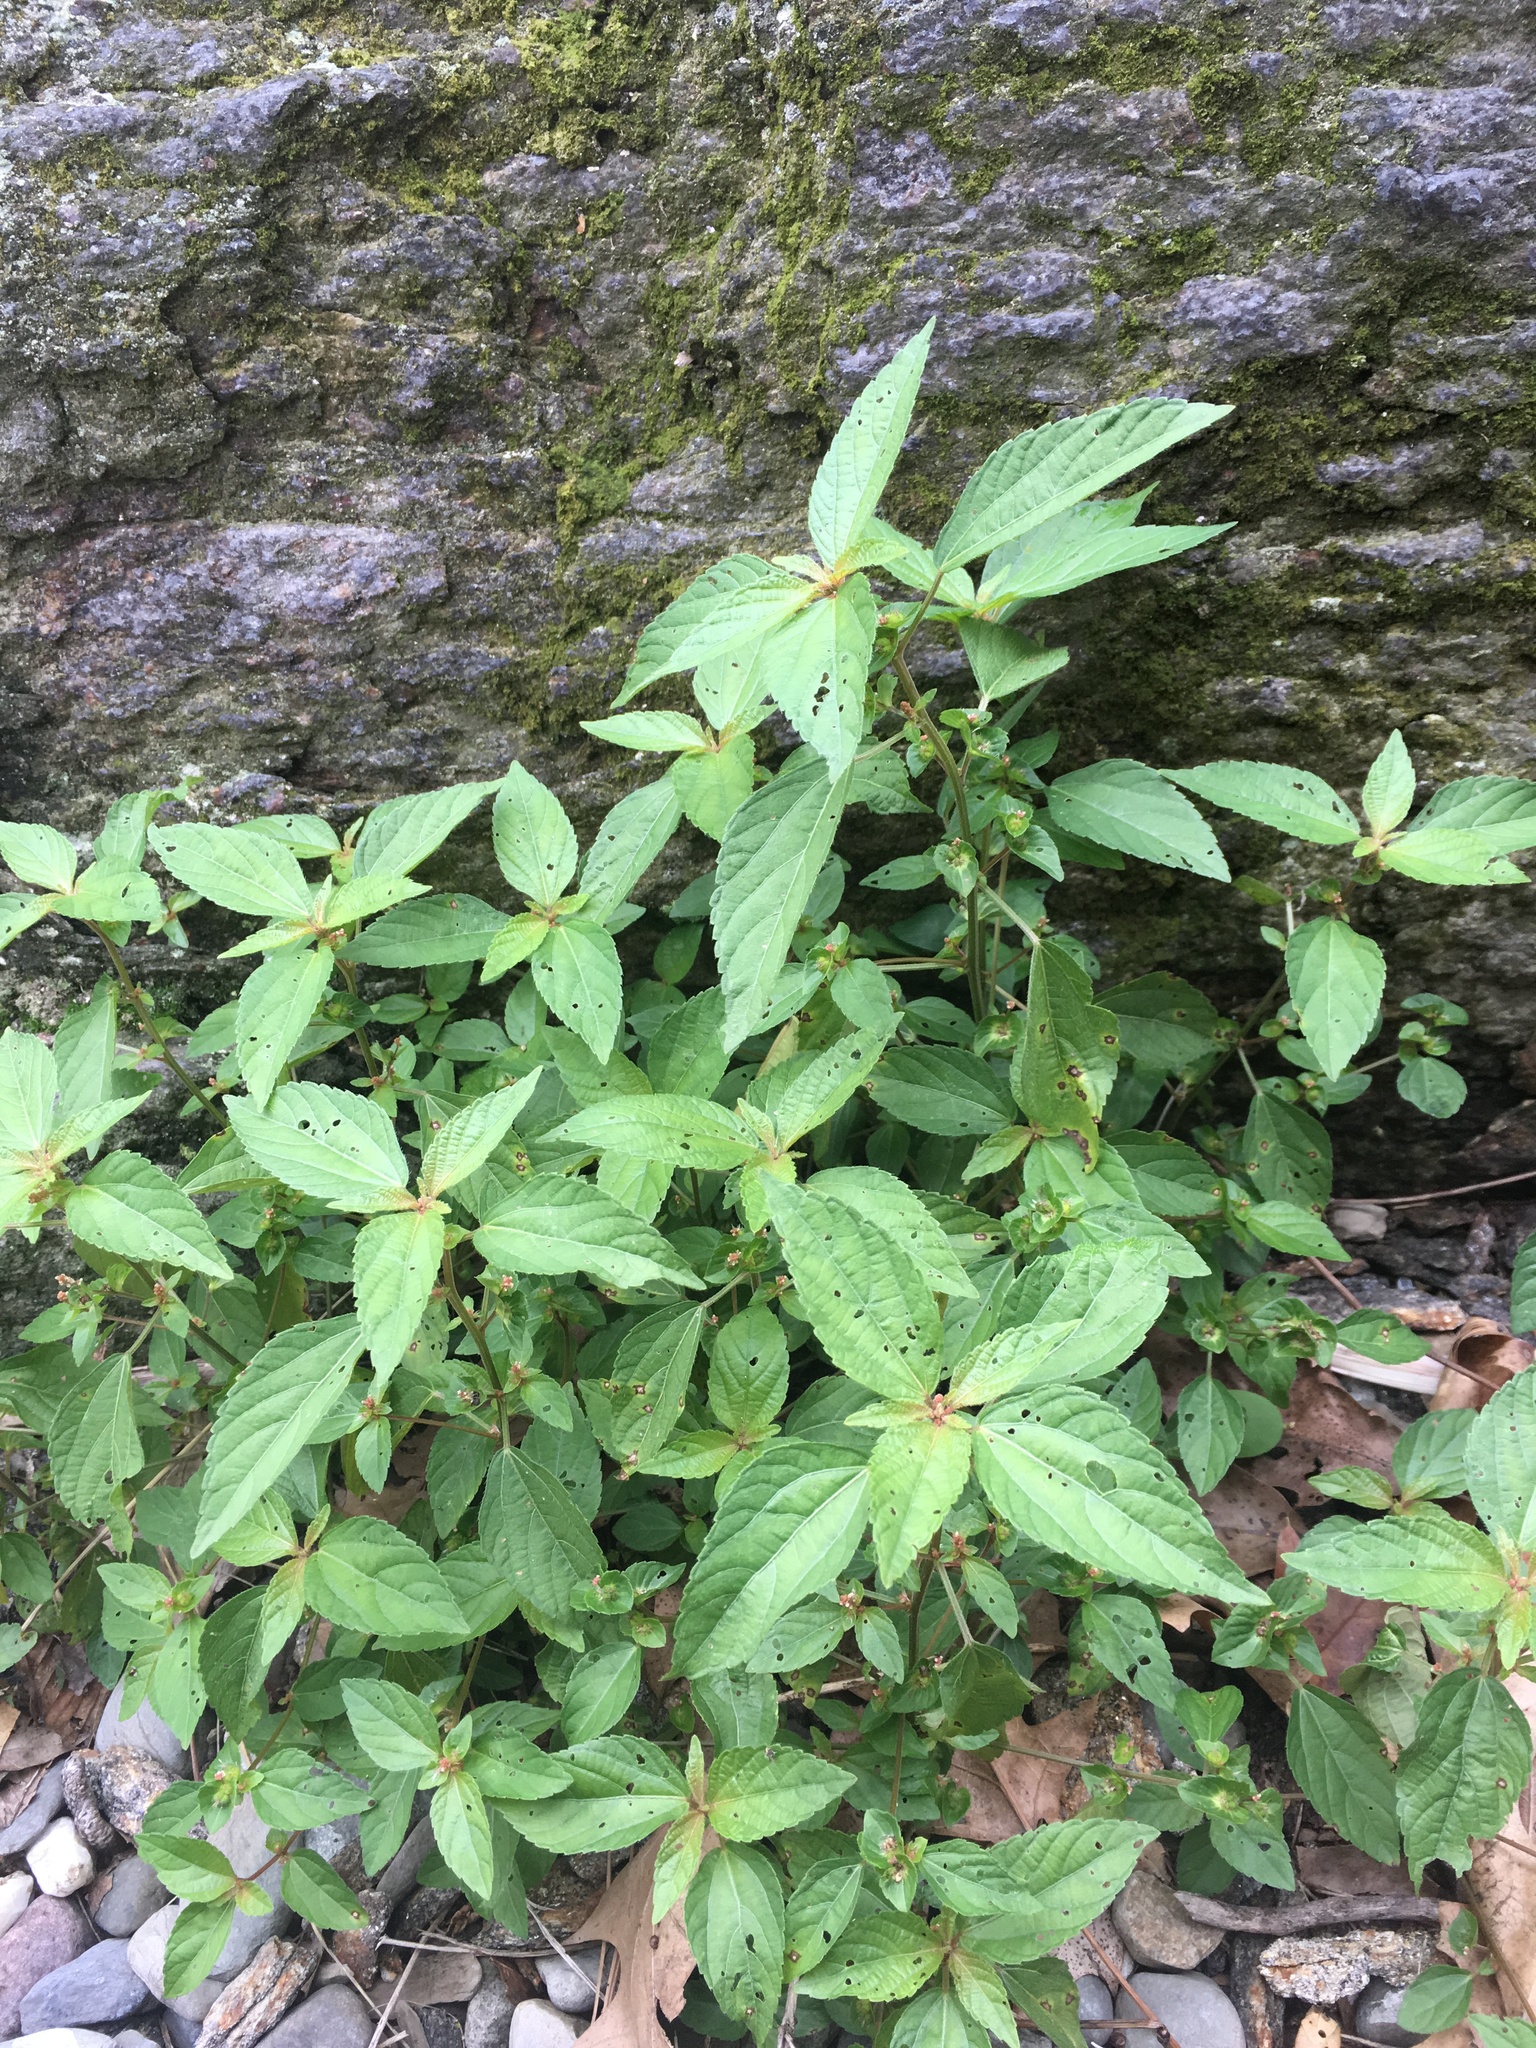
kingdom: Plantae
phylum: Tracheophyta
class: Magnoliopsida
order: Malpighiales
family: Euphorbiaceae
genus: Acalypha
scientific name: Acalypha australis
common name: Asian copperleaf
